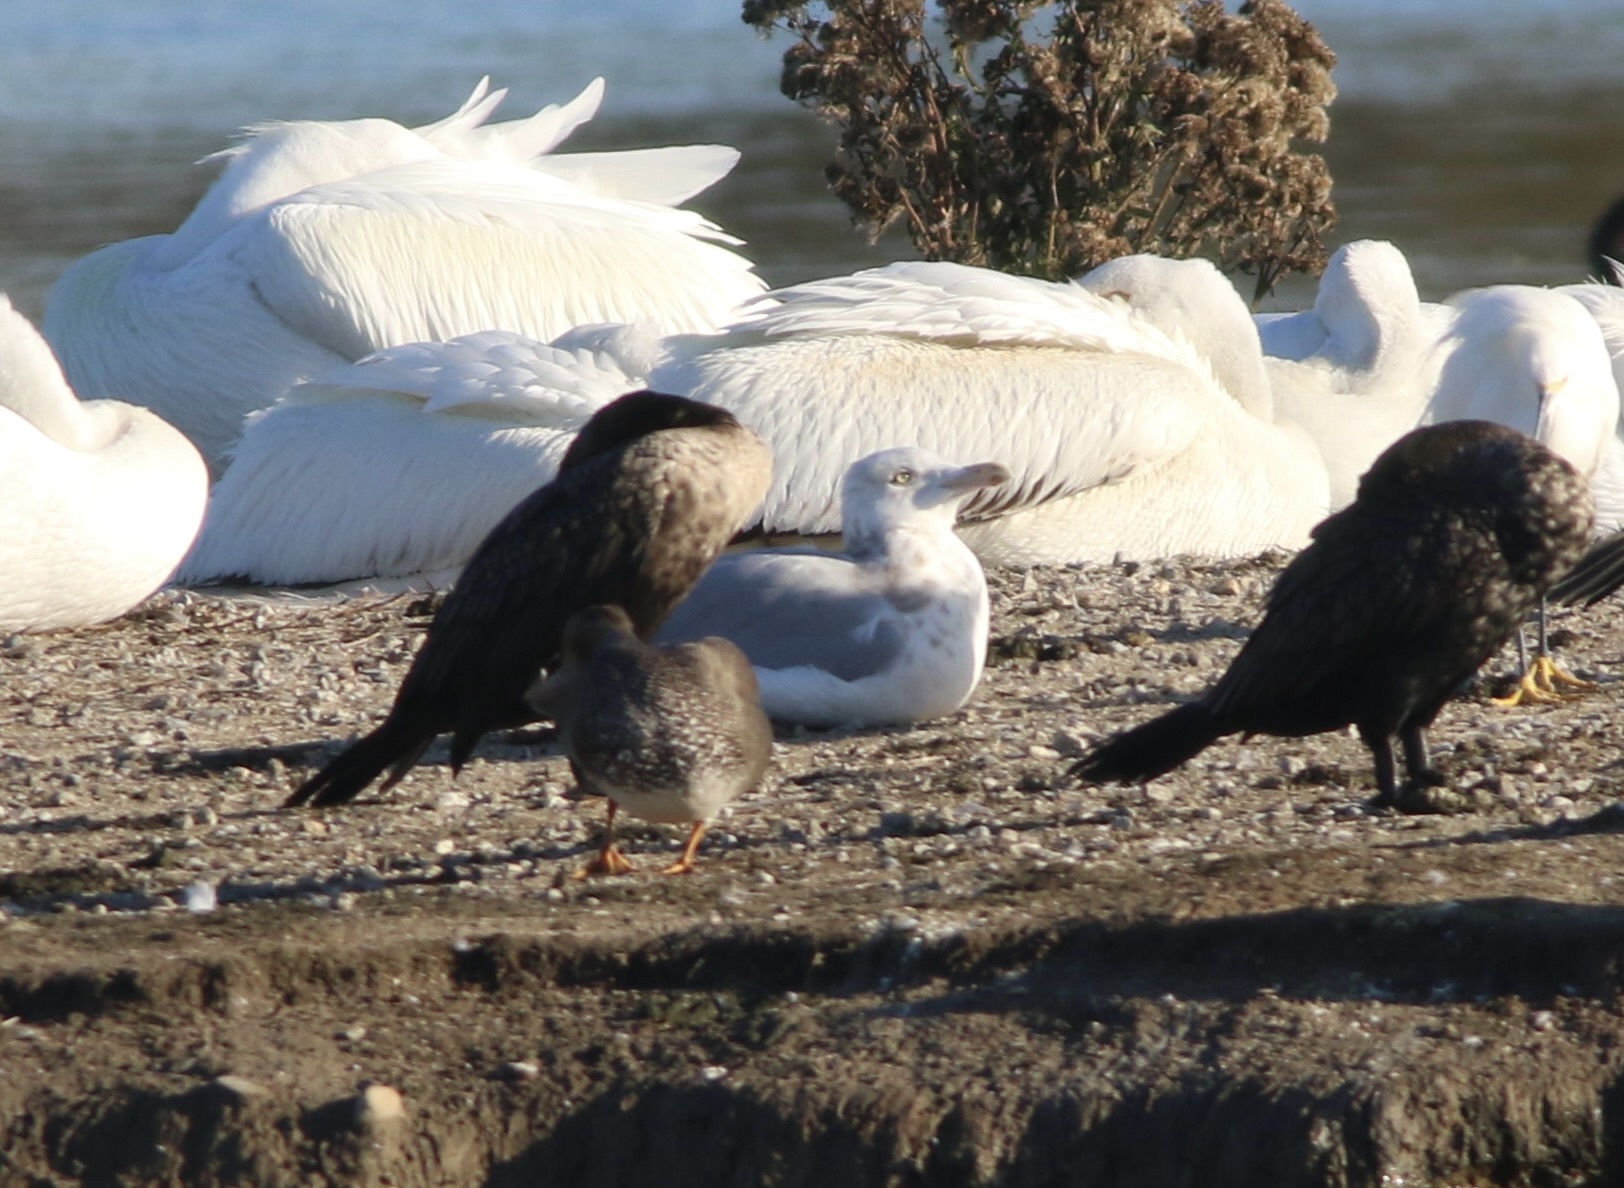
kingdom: Animalia
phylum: Chordata
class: Aves
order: Charadriiformes
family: Laridae
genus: Larus
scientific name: Larus argentatus
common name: Herring gull
